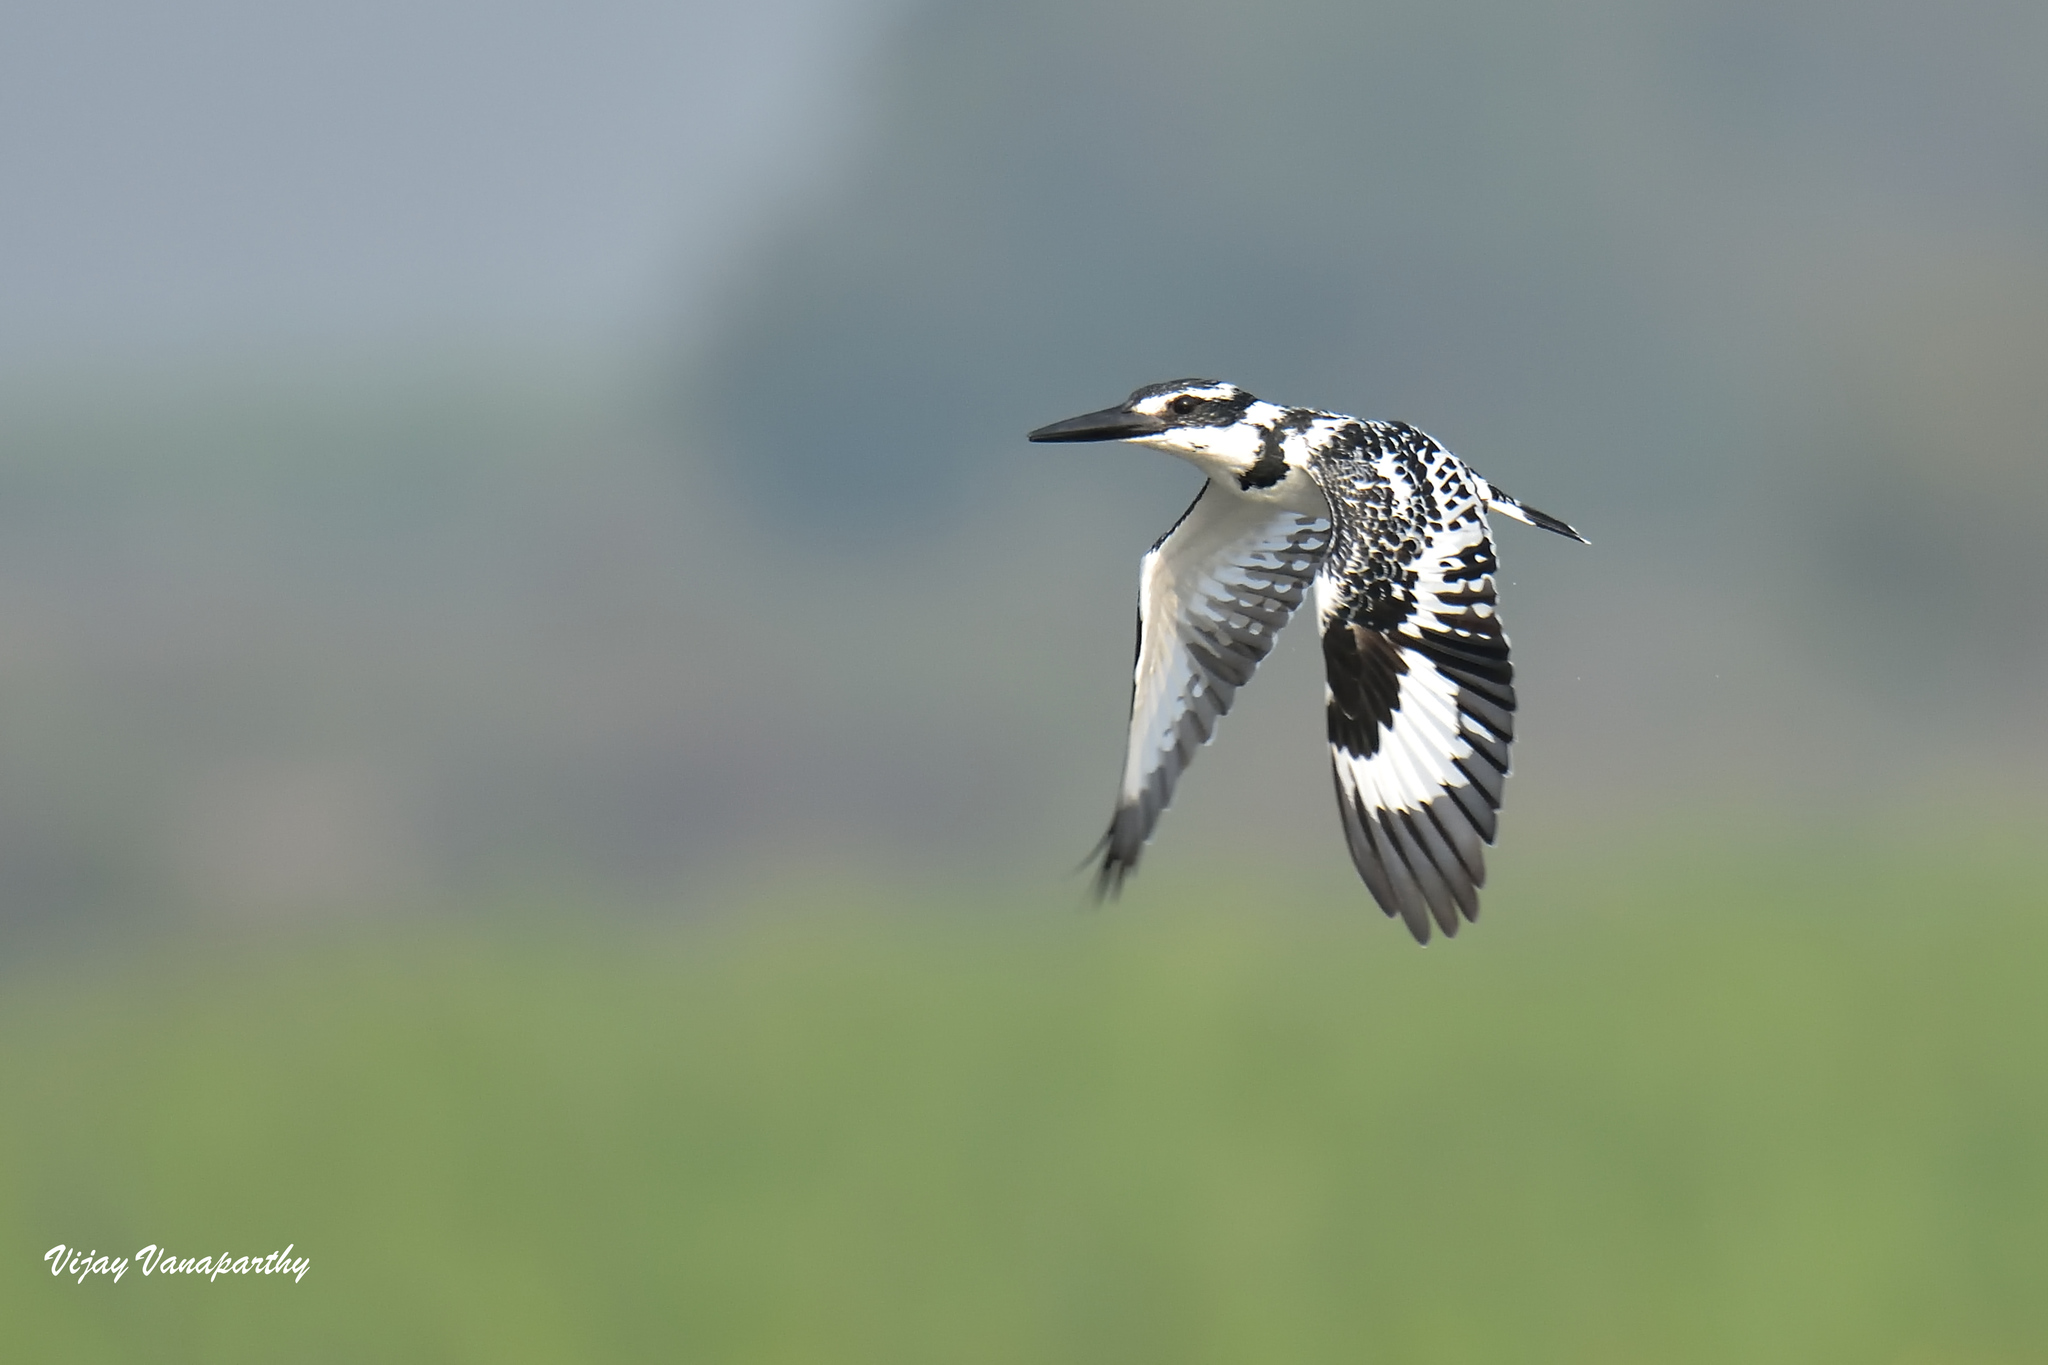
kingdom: Animalia
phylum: Chordata
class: Aves
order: Coraciiformes
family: Alcedinidae
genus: Ceryle
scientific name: Ceryle rudis
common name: Pied kingfisher
